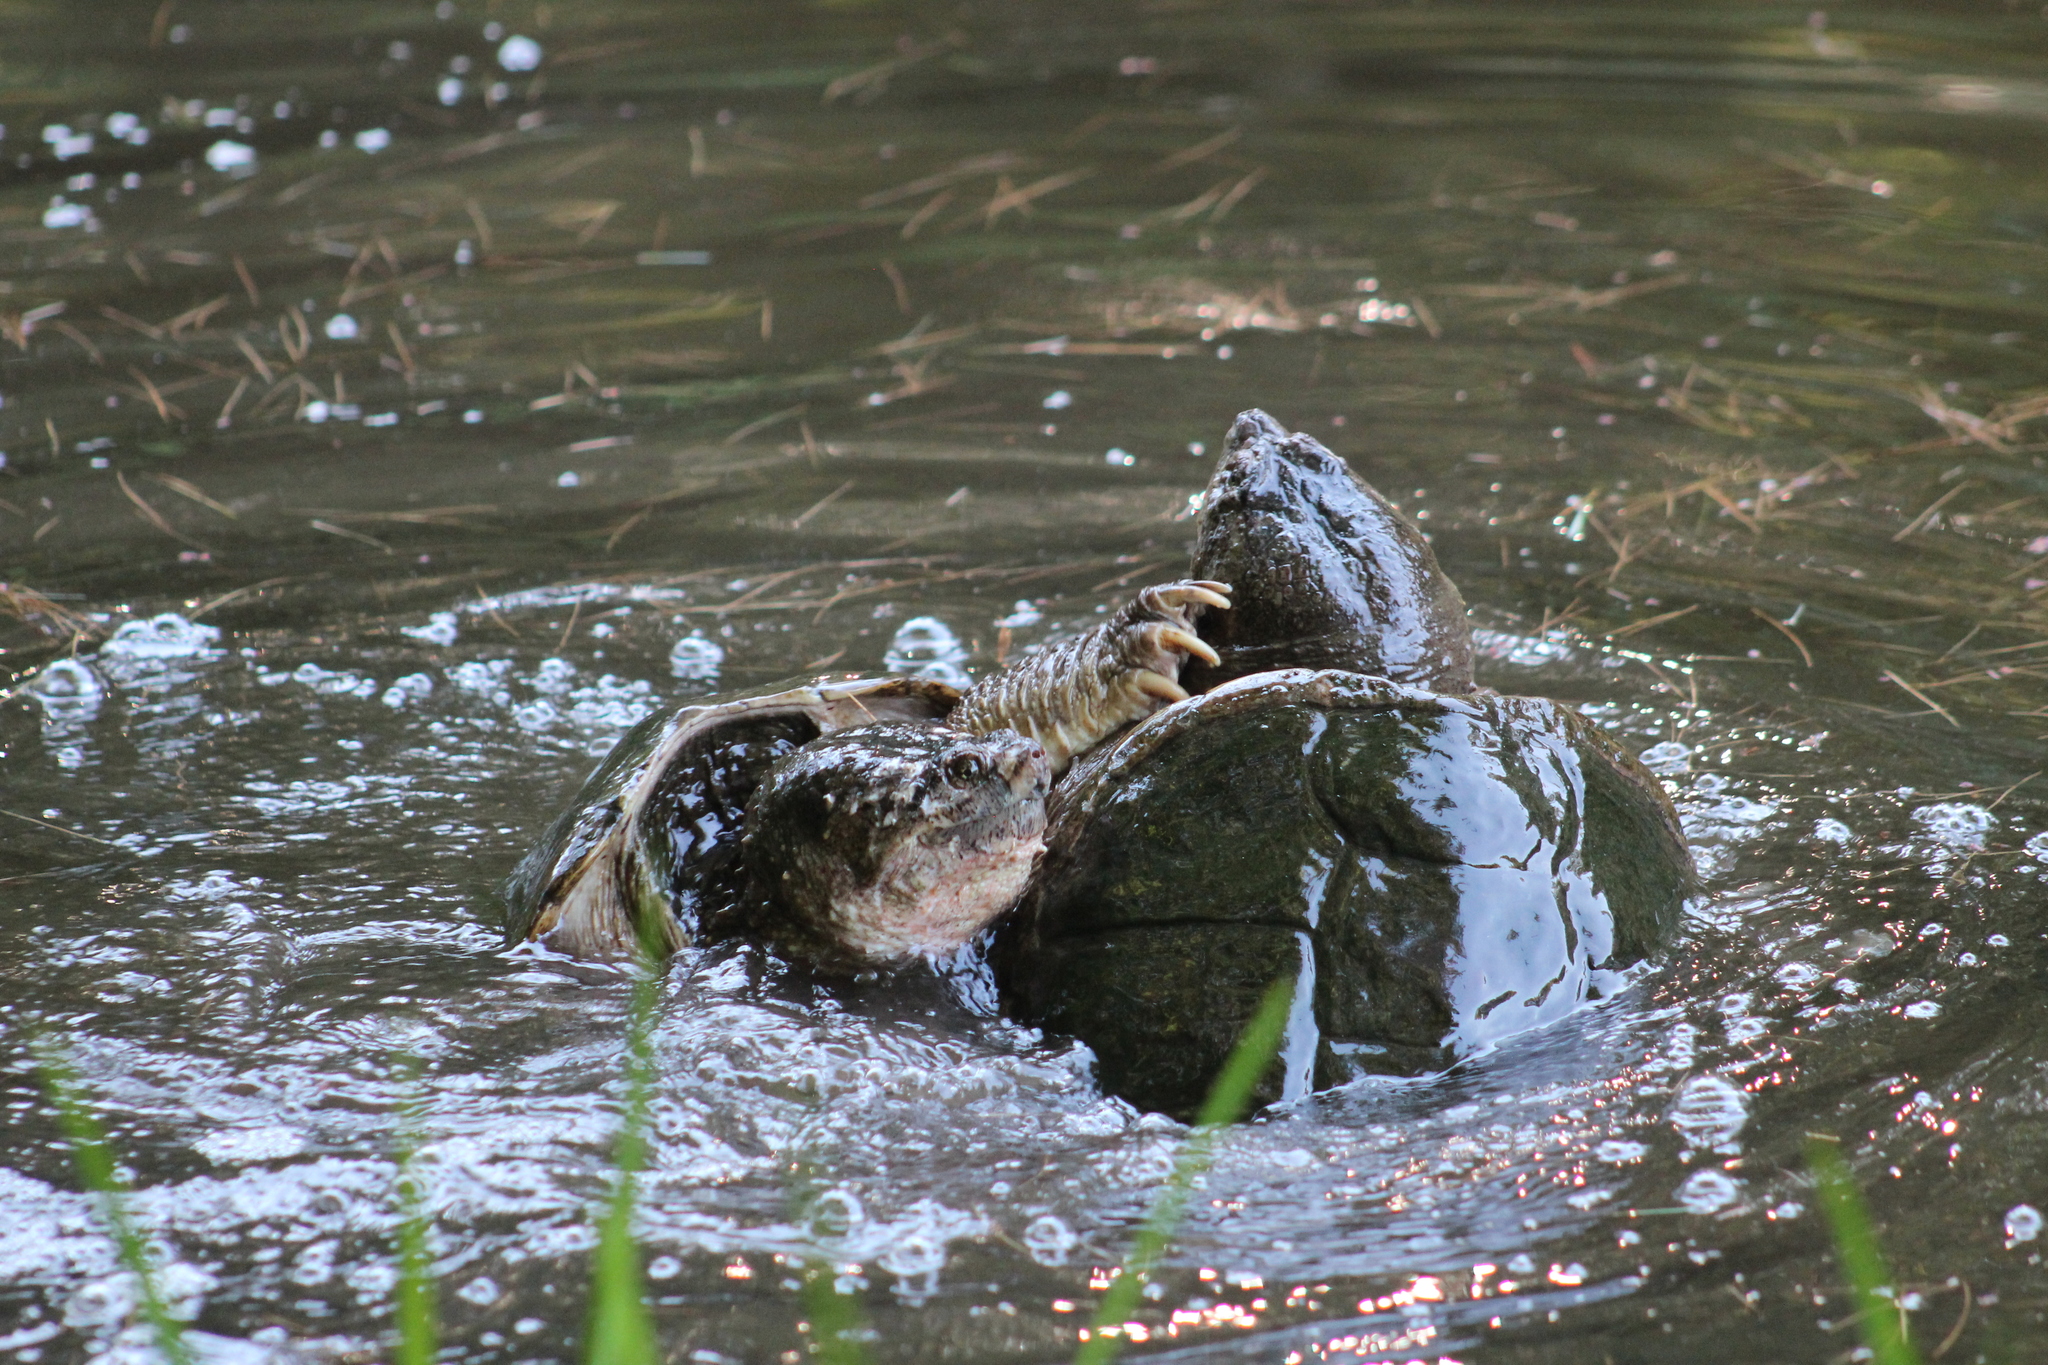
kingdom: Animalia
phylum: Chordata
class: Testudines
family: Chelydridae
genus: Chelydra
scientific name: Chelydra serpentina
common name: Common snapping turtle
